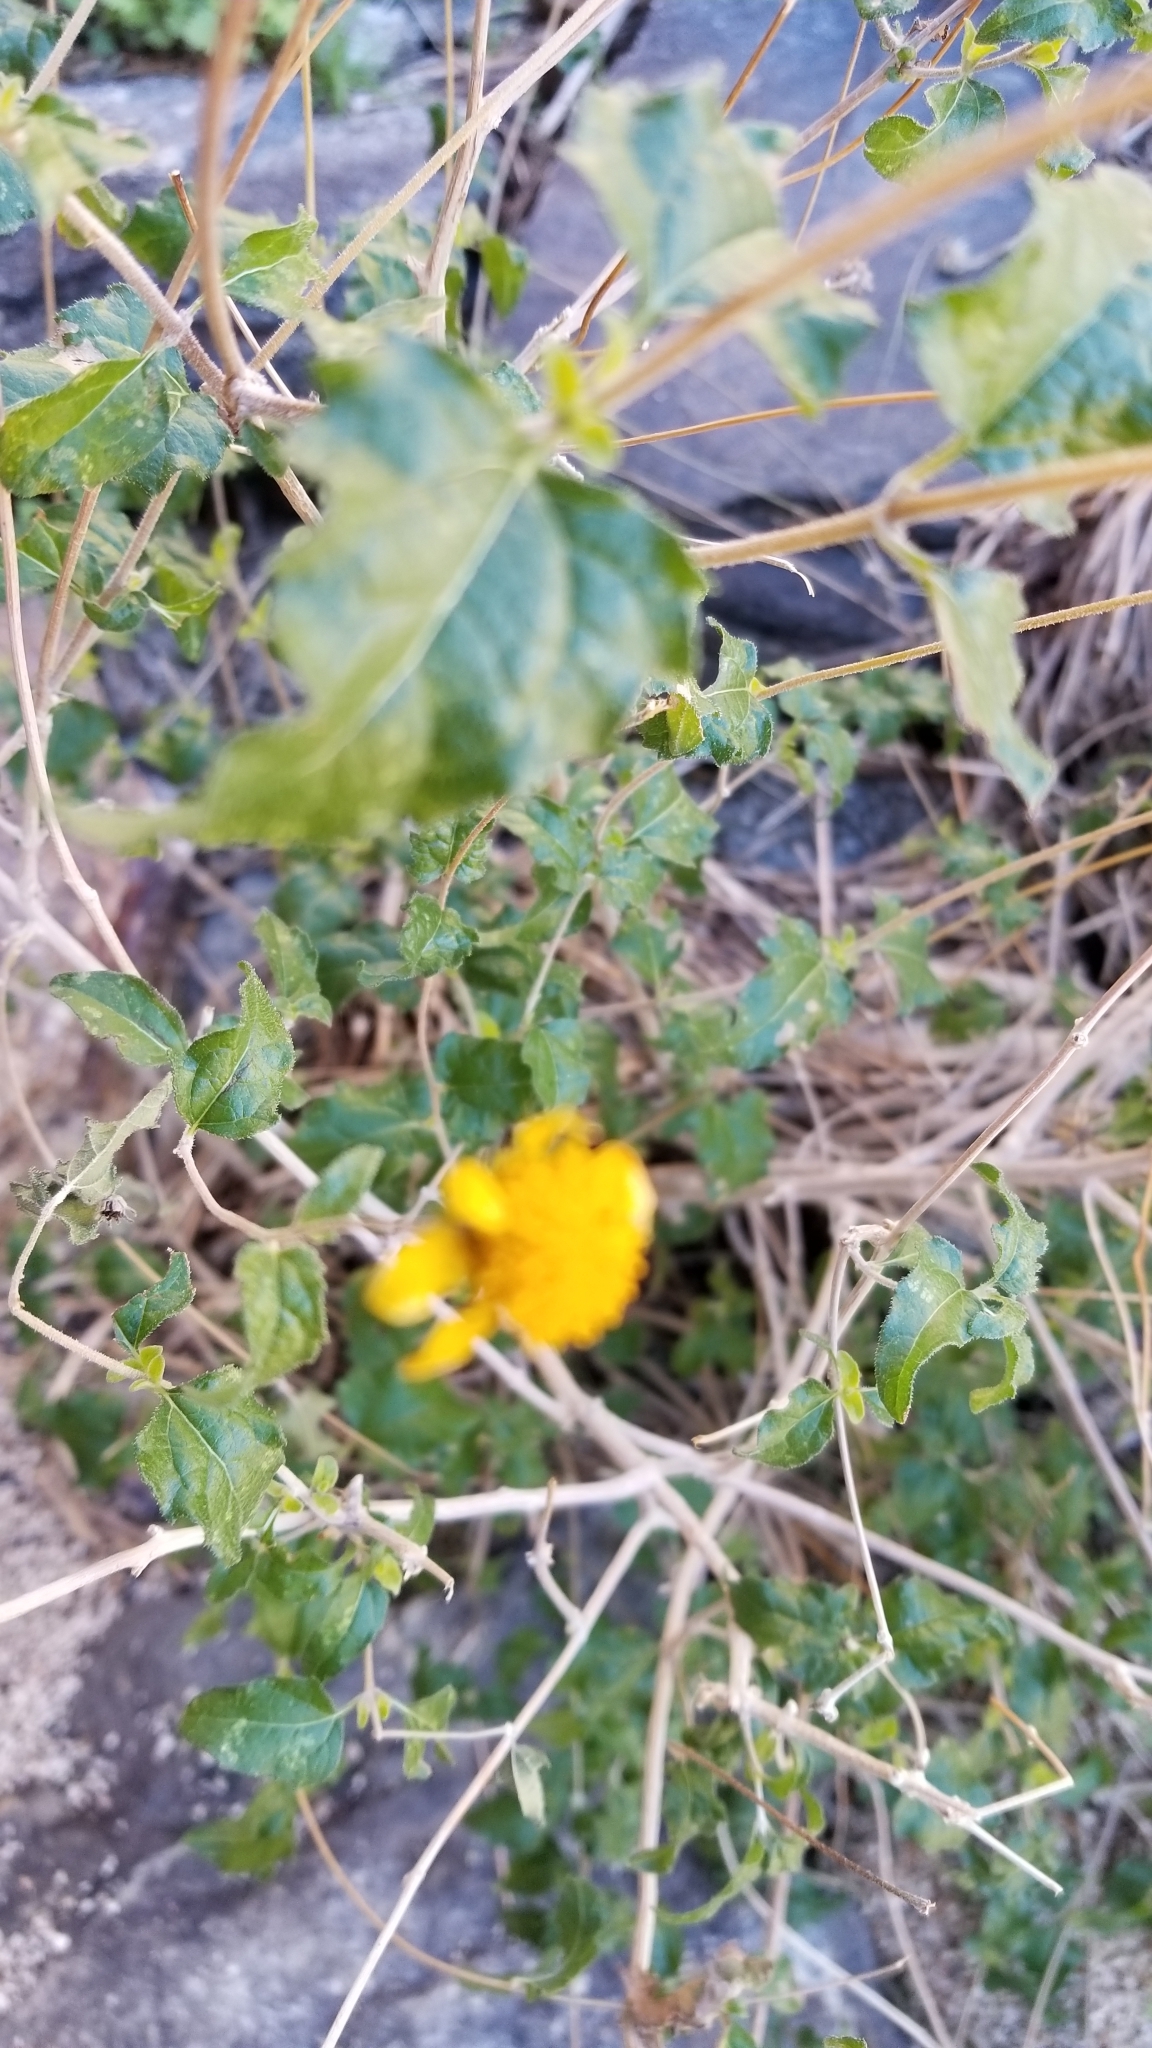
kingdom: Plantae
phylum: Tracheophyta
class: Magnoliopsida
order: Asterales
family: Asteraceae
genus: Bahiopsis
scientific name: Bahiopsis parishii
